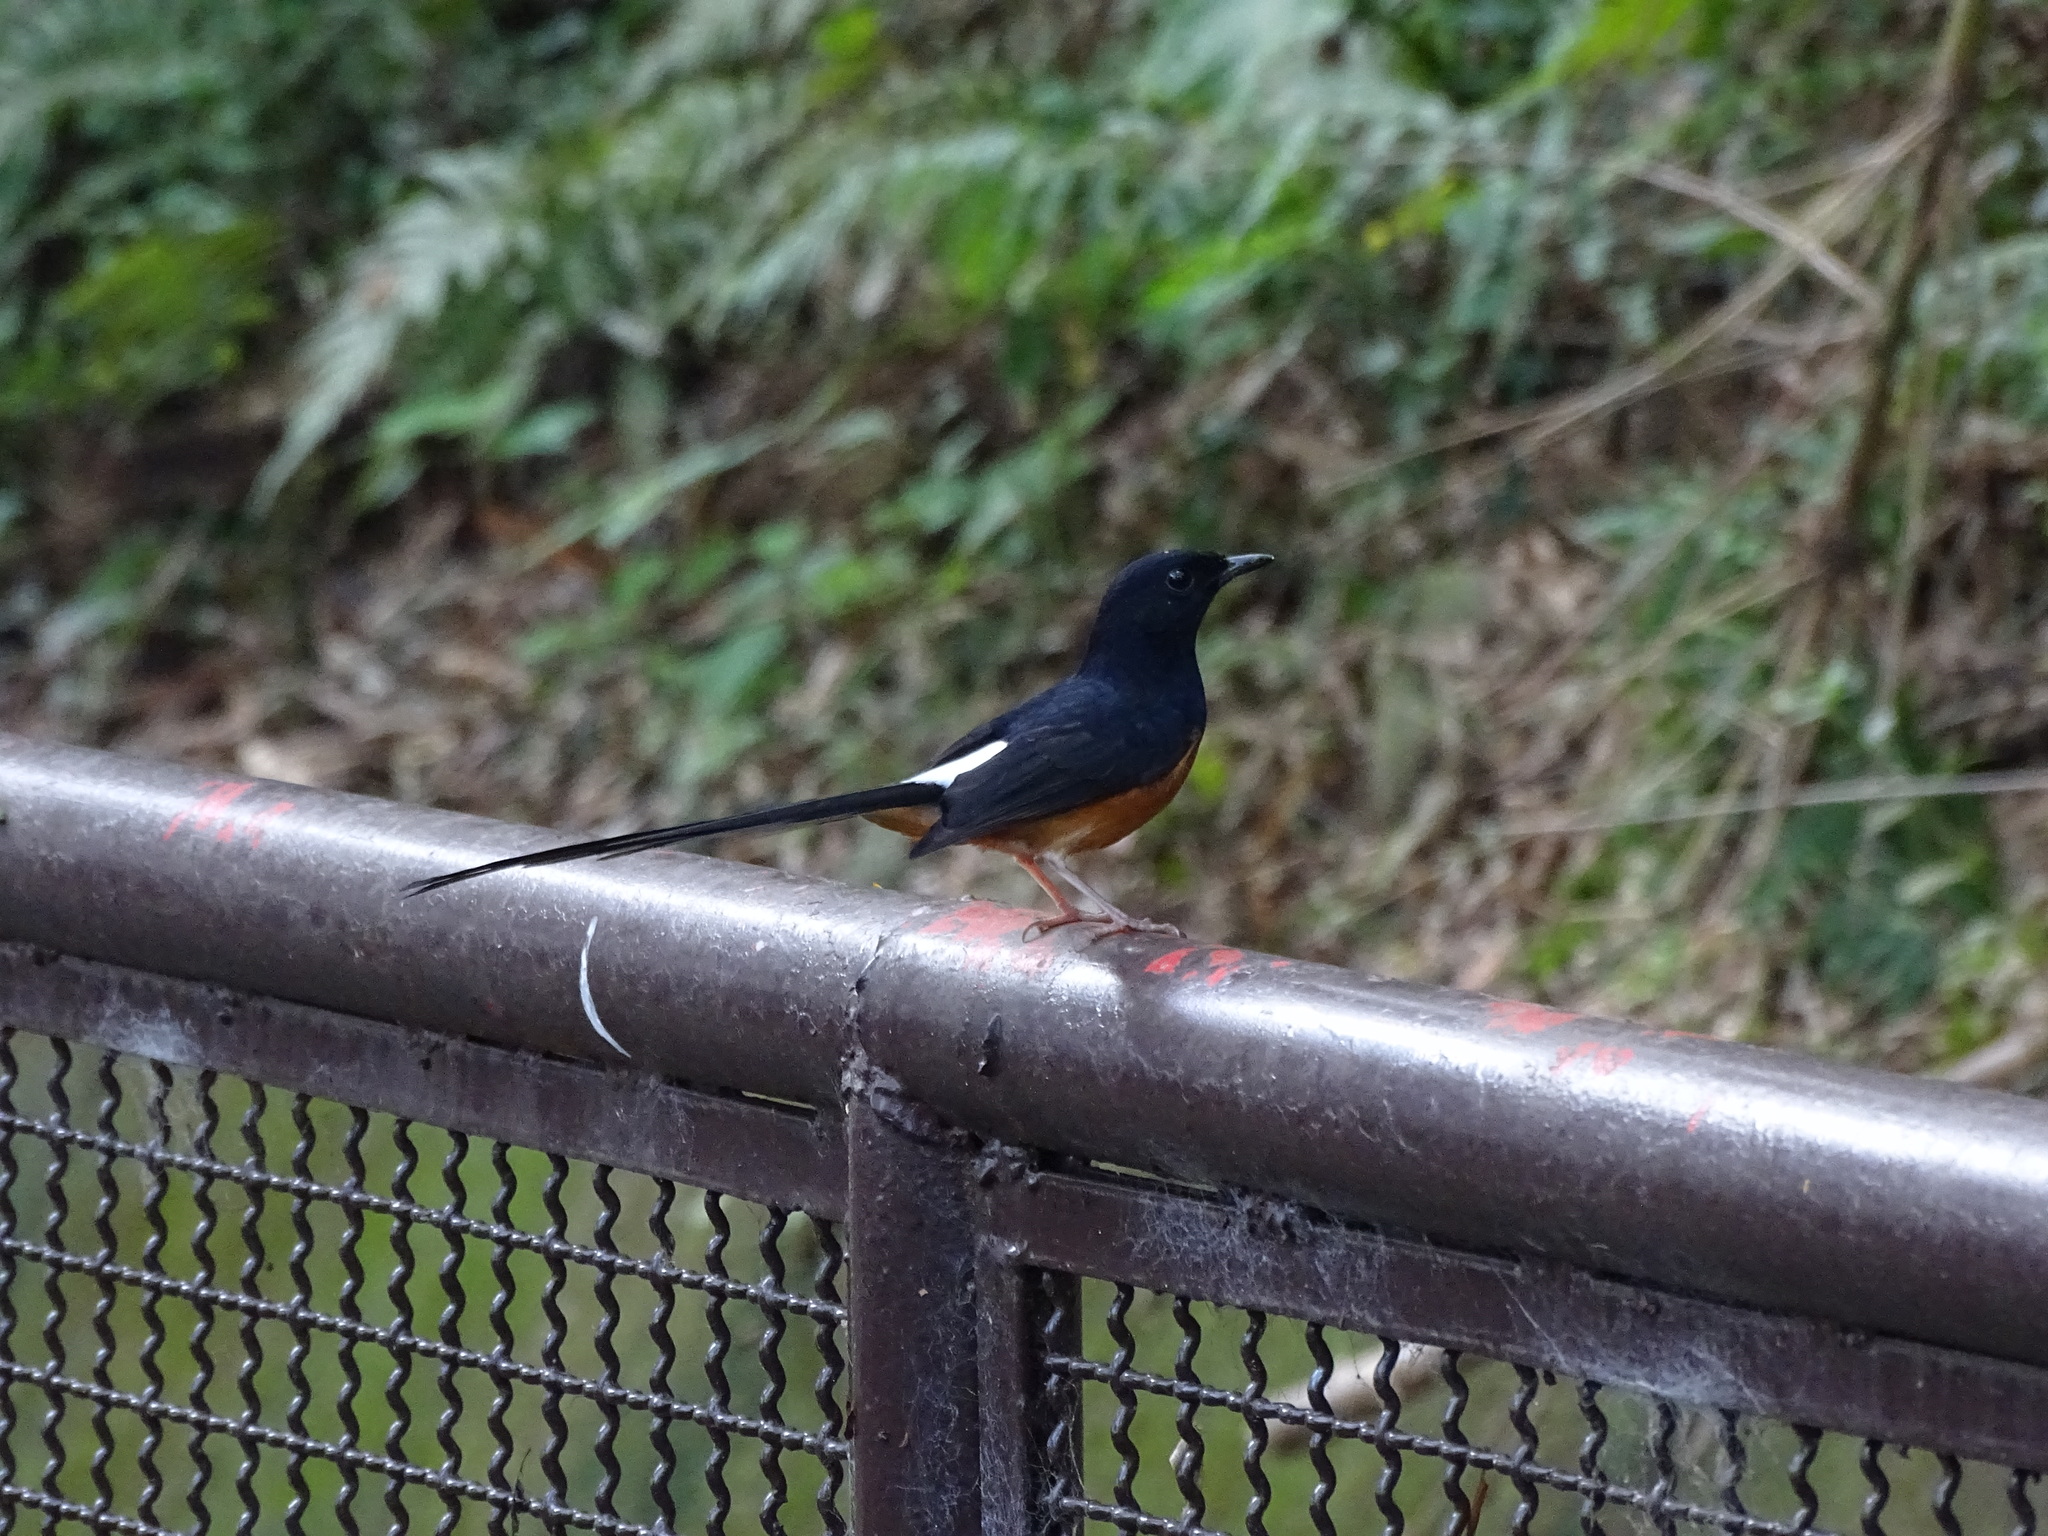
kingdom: Animalia
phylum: Chordata
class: Aves
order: Passeriformes
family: Muscicapidae
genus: Copsychus
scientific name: Copsychus malabaricus
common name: White-rumped shama
